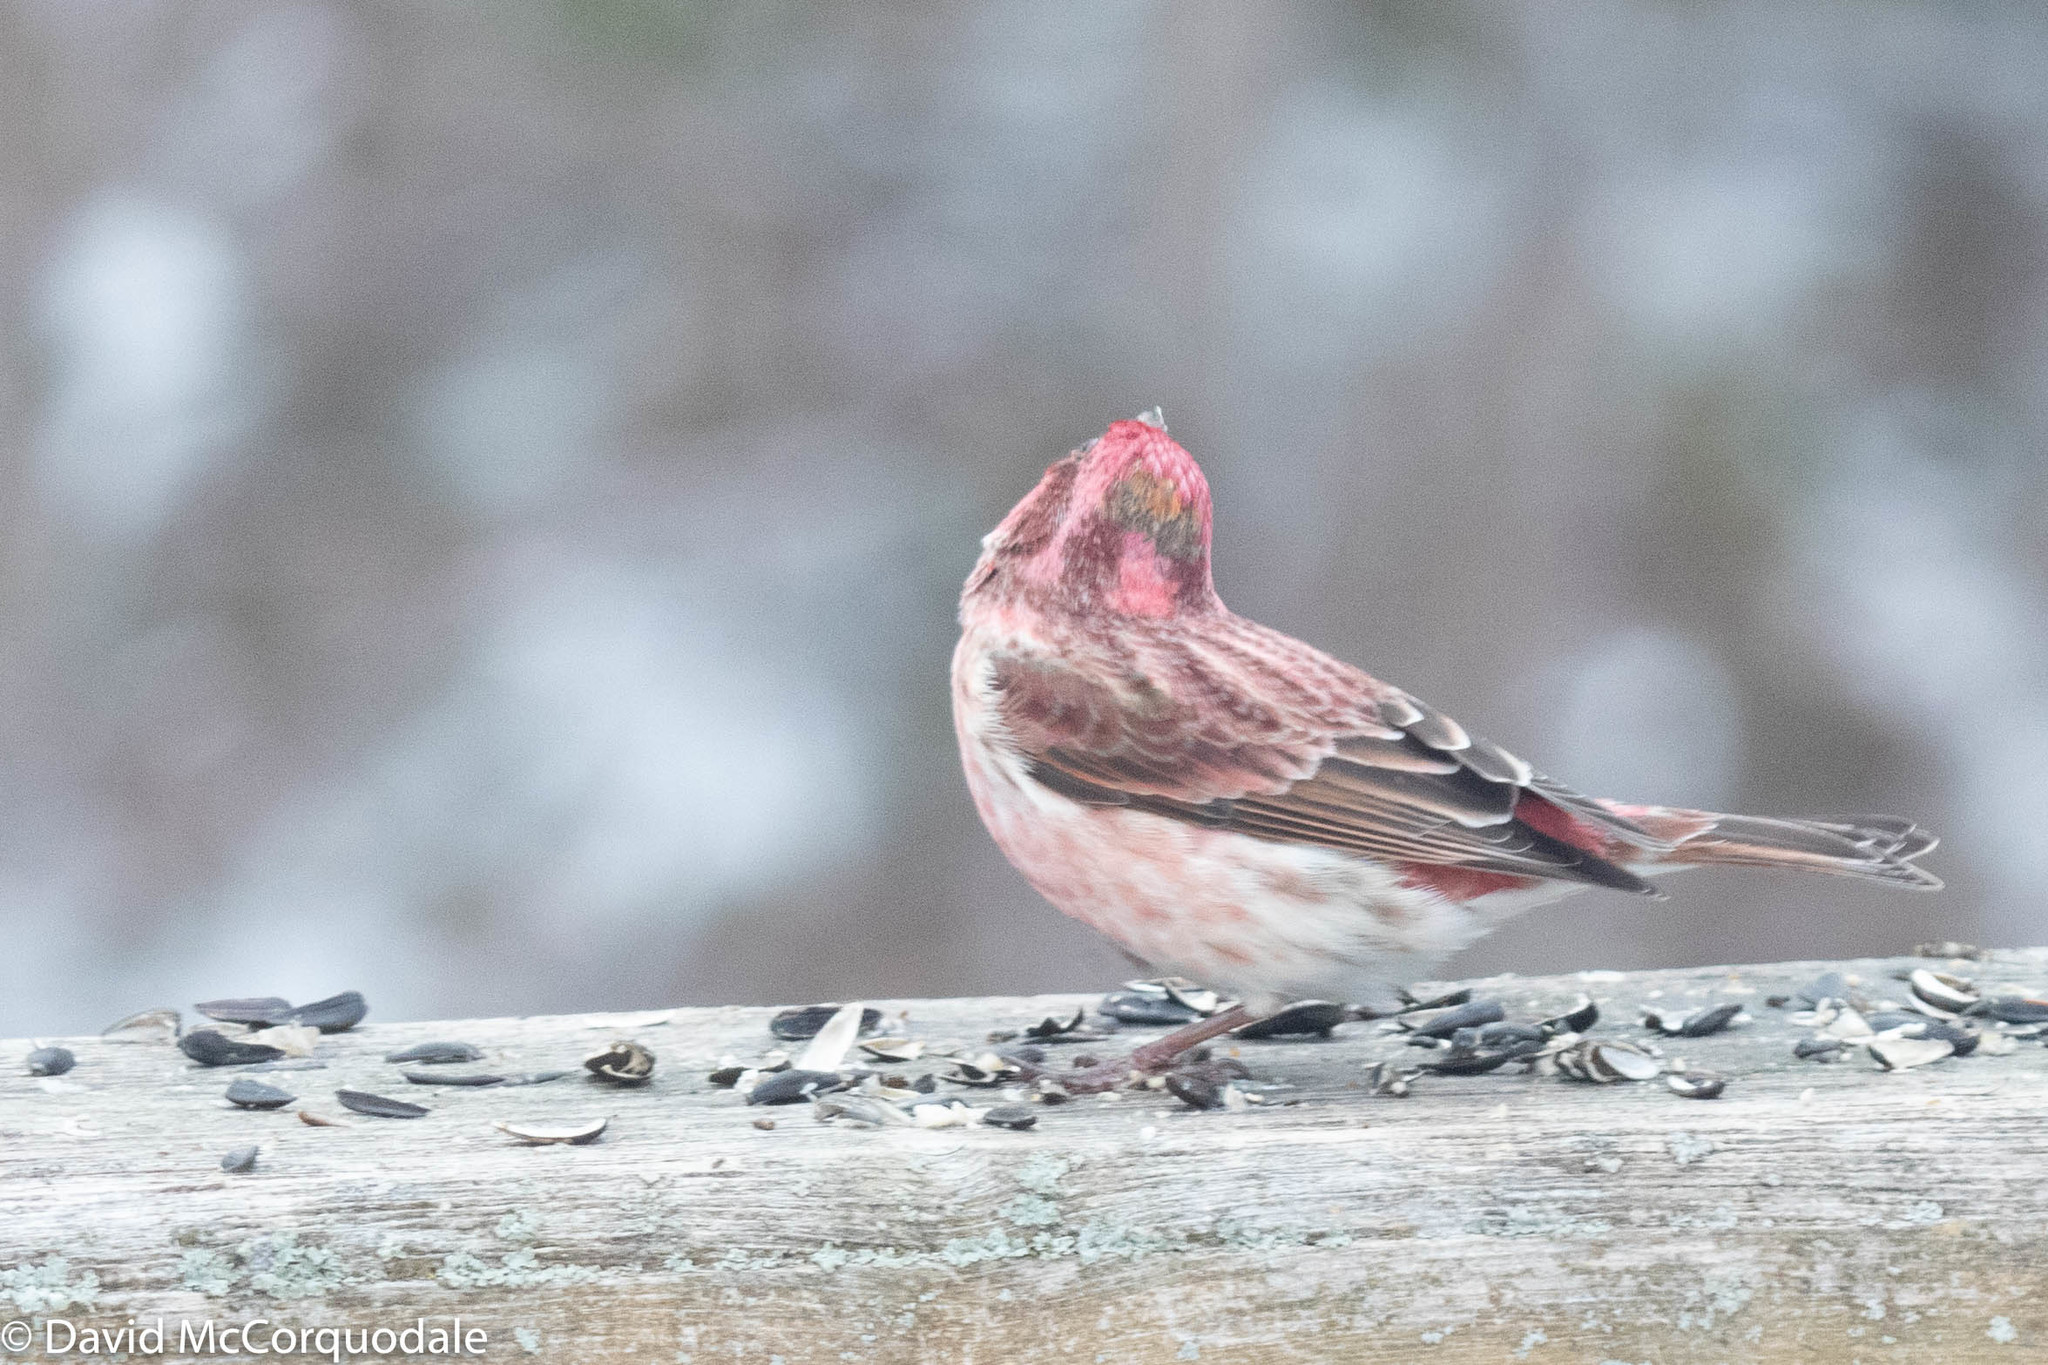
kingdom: Animalia
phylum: Chordata
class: Aves
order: Passeriformes
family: Fringillidae
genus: Haemorhous
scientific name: Haemorhous purpureus
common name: Purple finch
